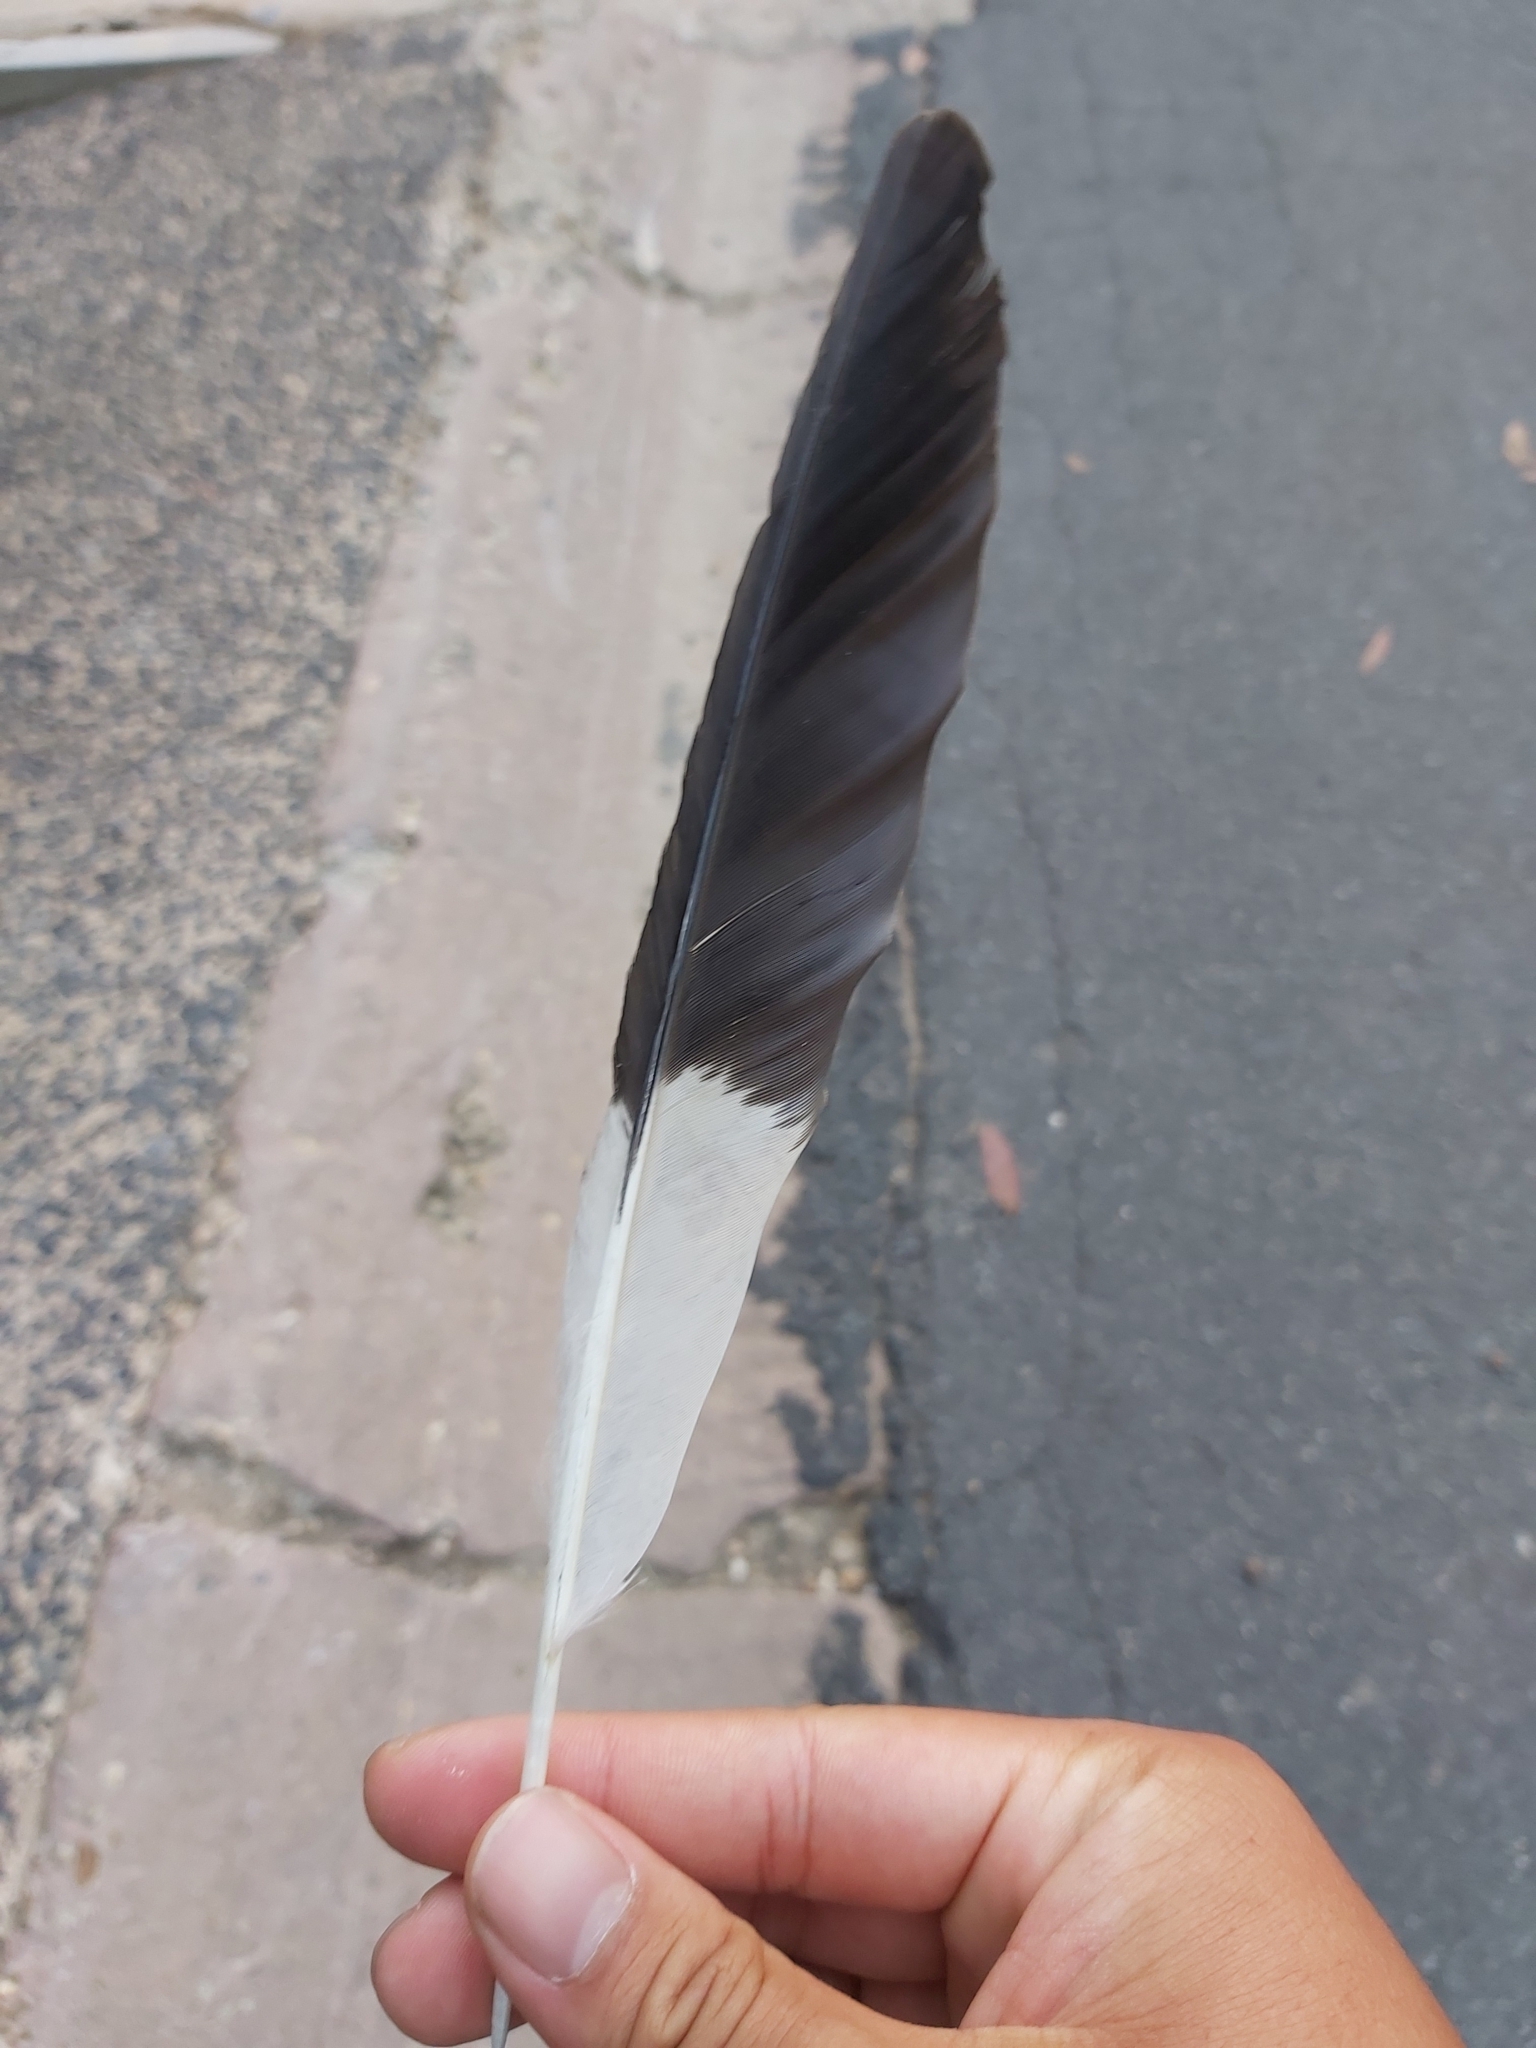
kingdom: Animalia
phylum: Chordata
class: Aves
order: Passeriformes
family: Cracticidae
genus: Strepera
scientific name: Strepera graculina
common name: Pied currawong
